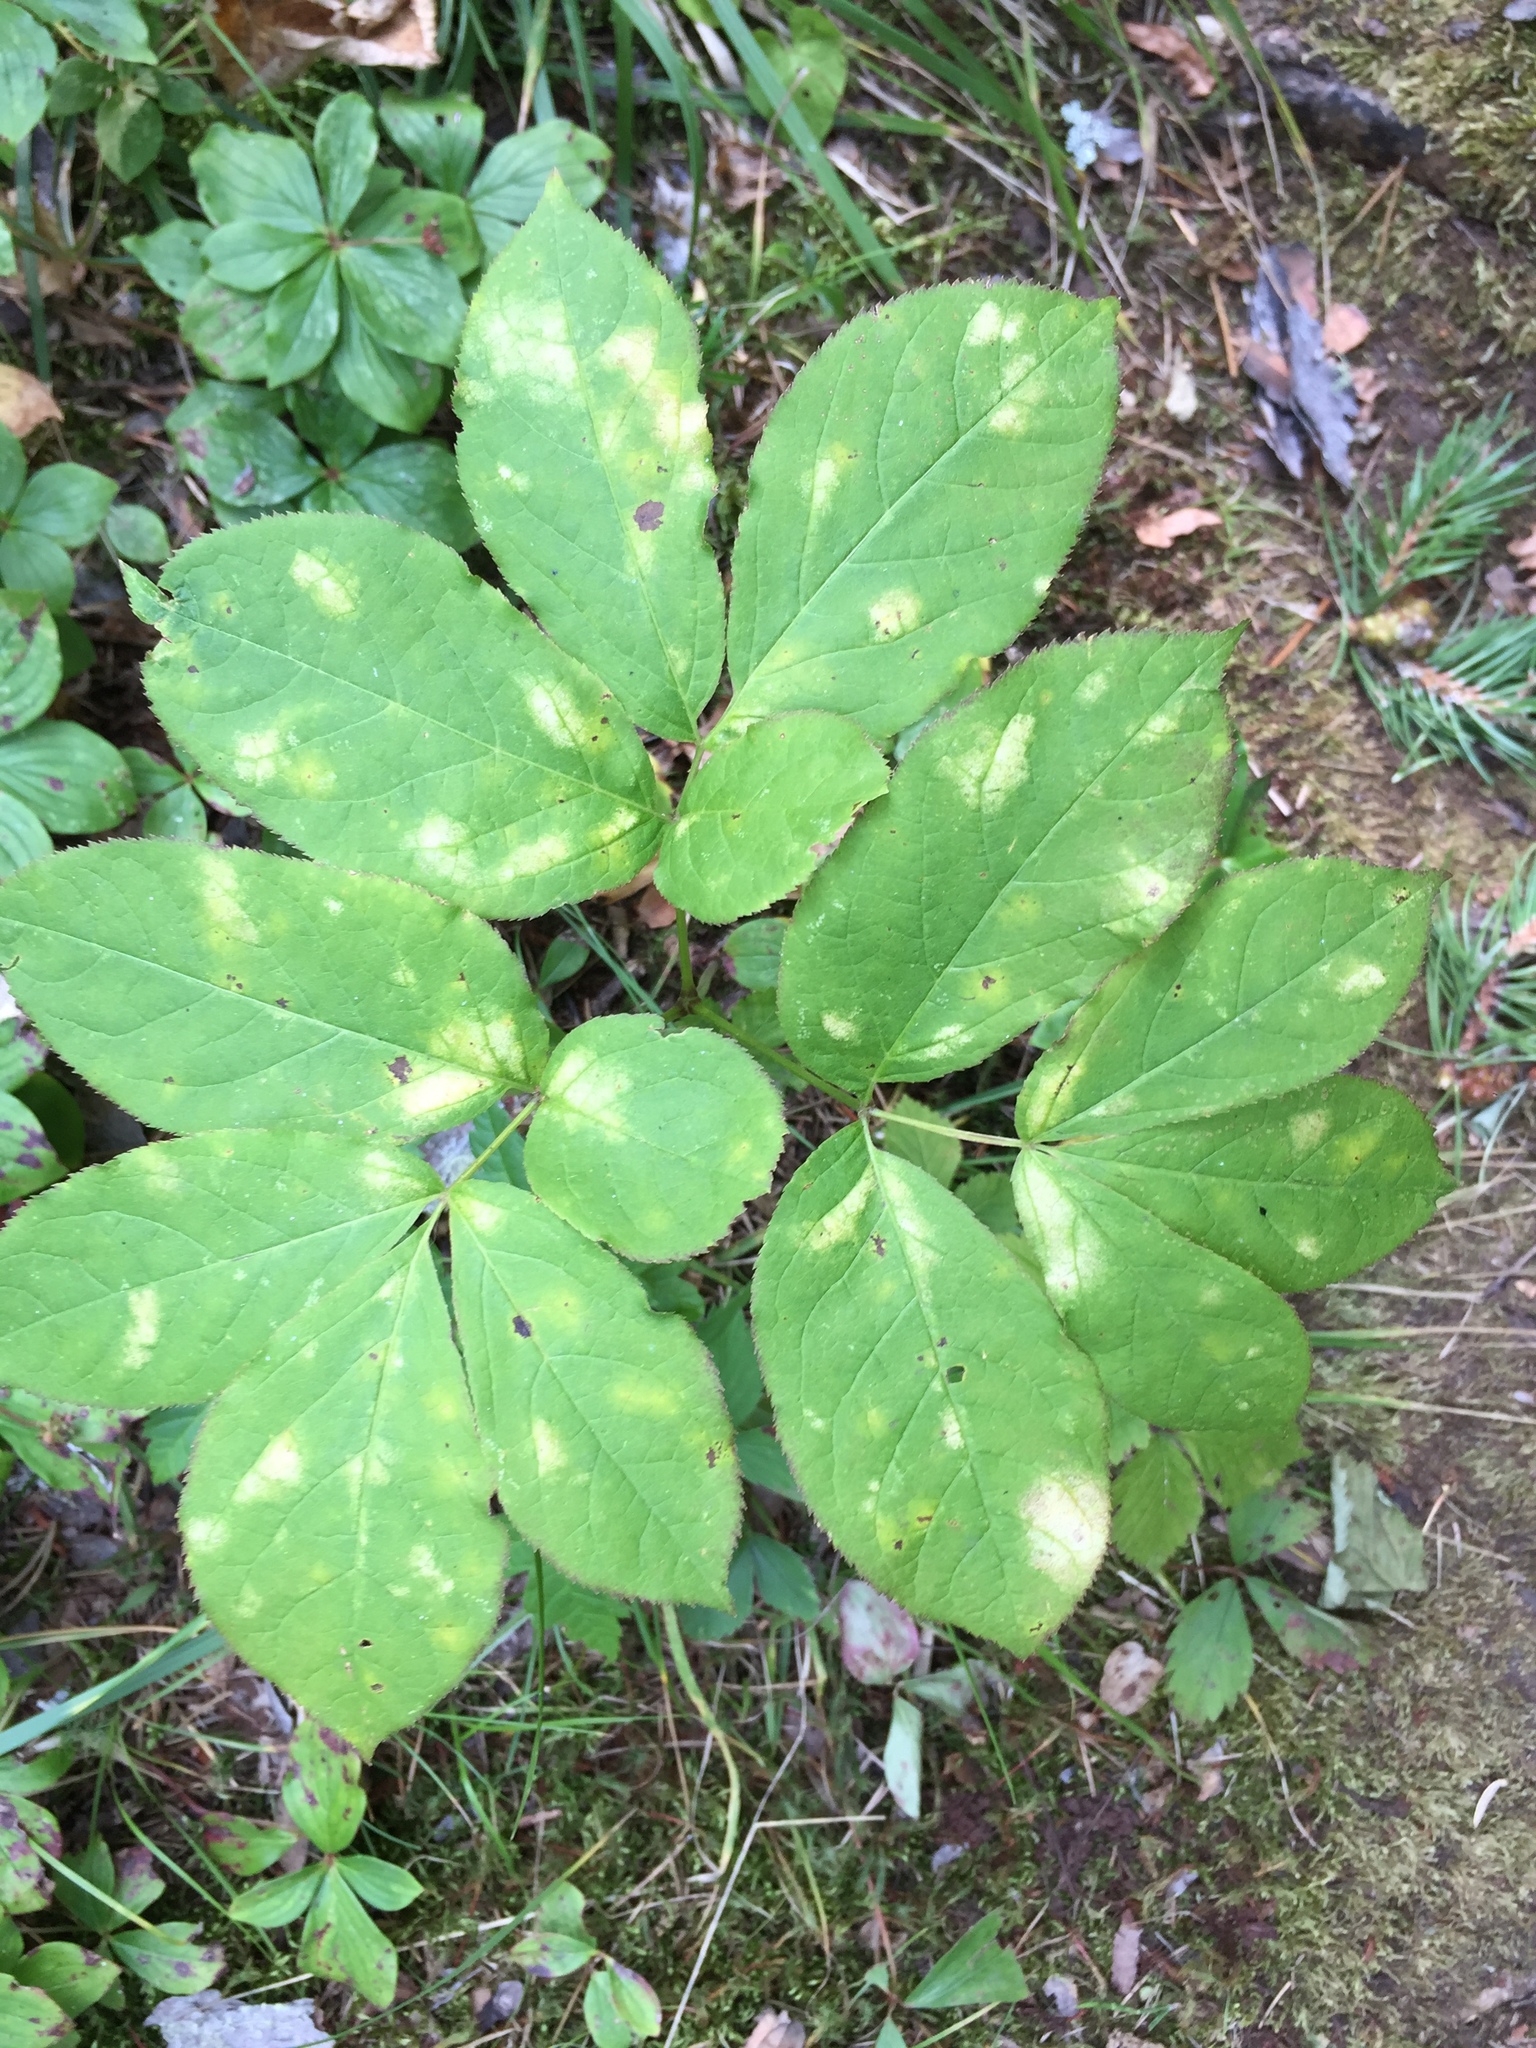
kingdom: Plantae
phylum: Tracheophyta
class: Magnoliopsida
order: Apiales
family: Araliaceae
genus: Aralia
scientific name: Aralia nudicaulis
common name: Wild sarsaparilla
